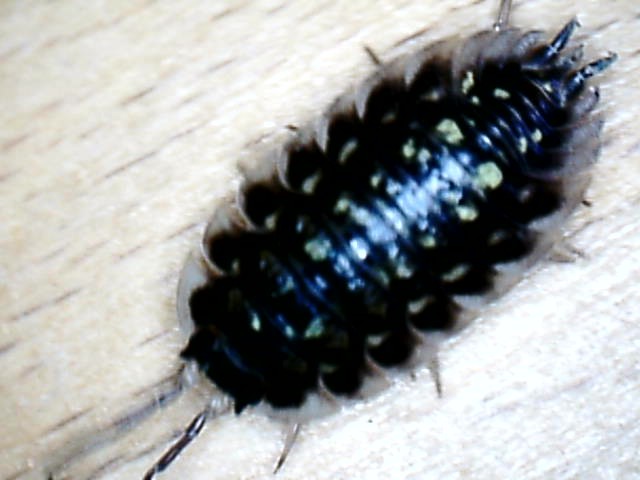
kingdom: Animalia
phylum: Arthropoda
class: Malacostraca
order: Isopoda
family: Oniscidae
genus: Oniscus
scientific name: Oniscus asellus
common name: Common shiny woodlouse
